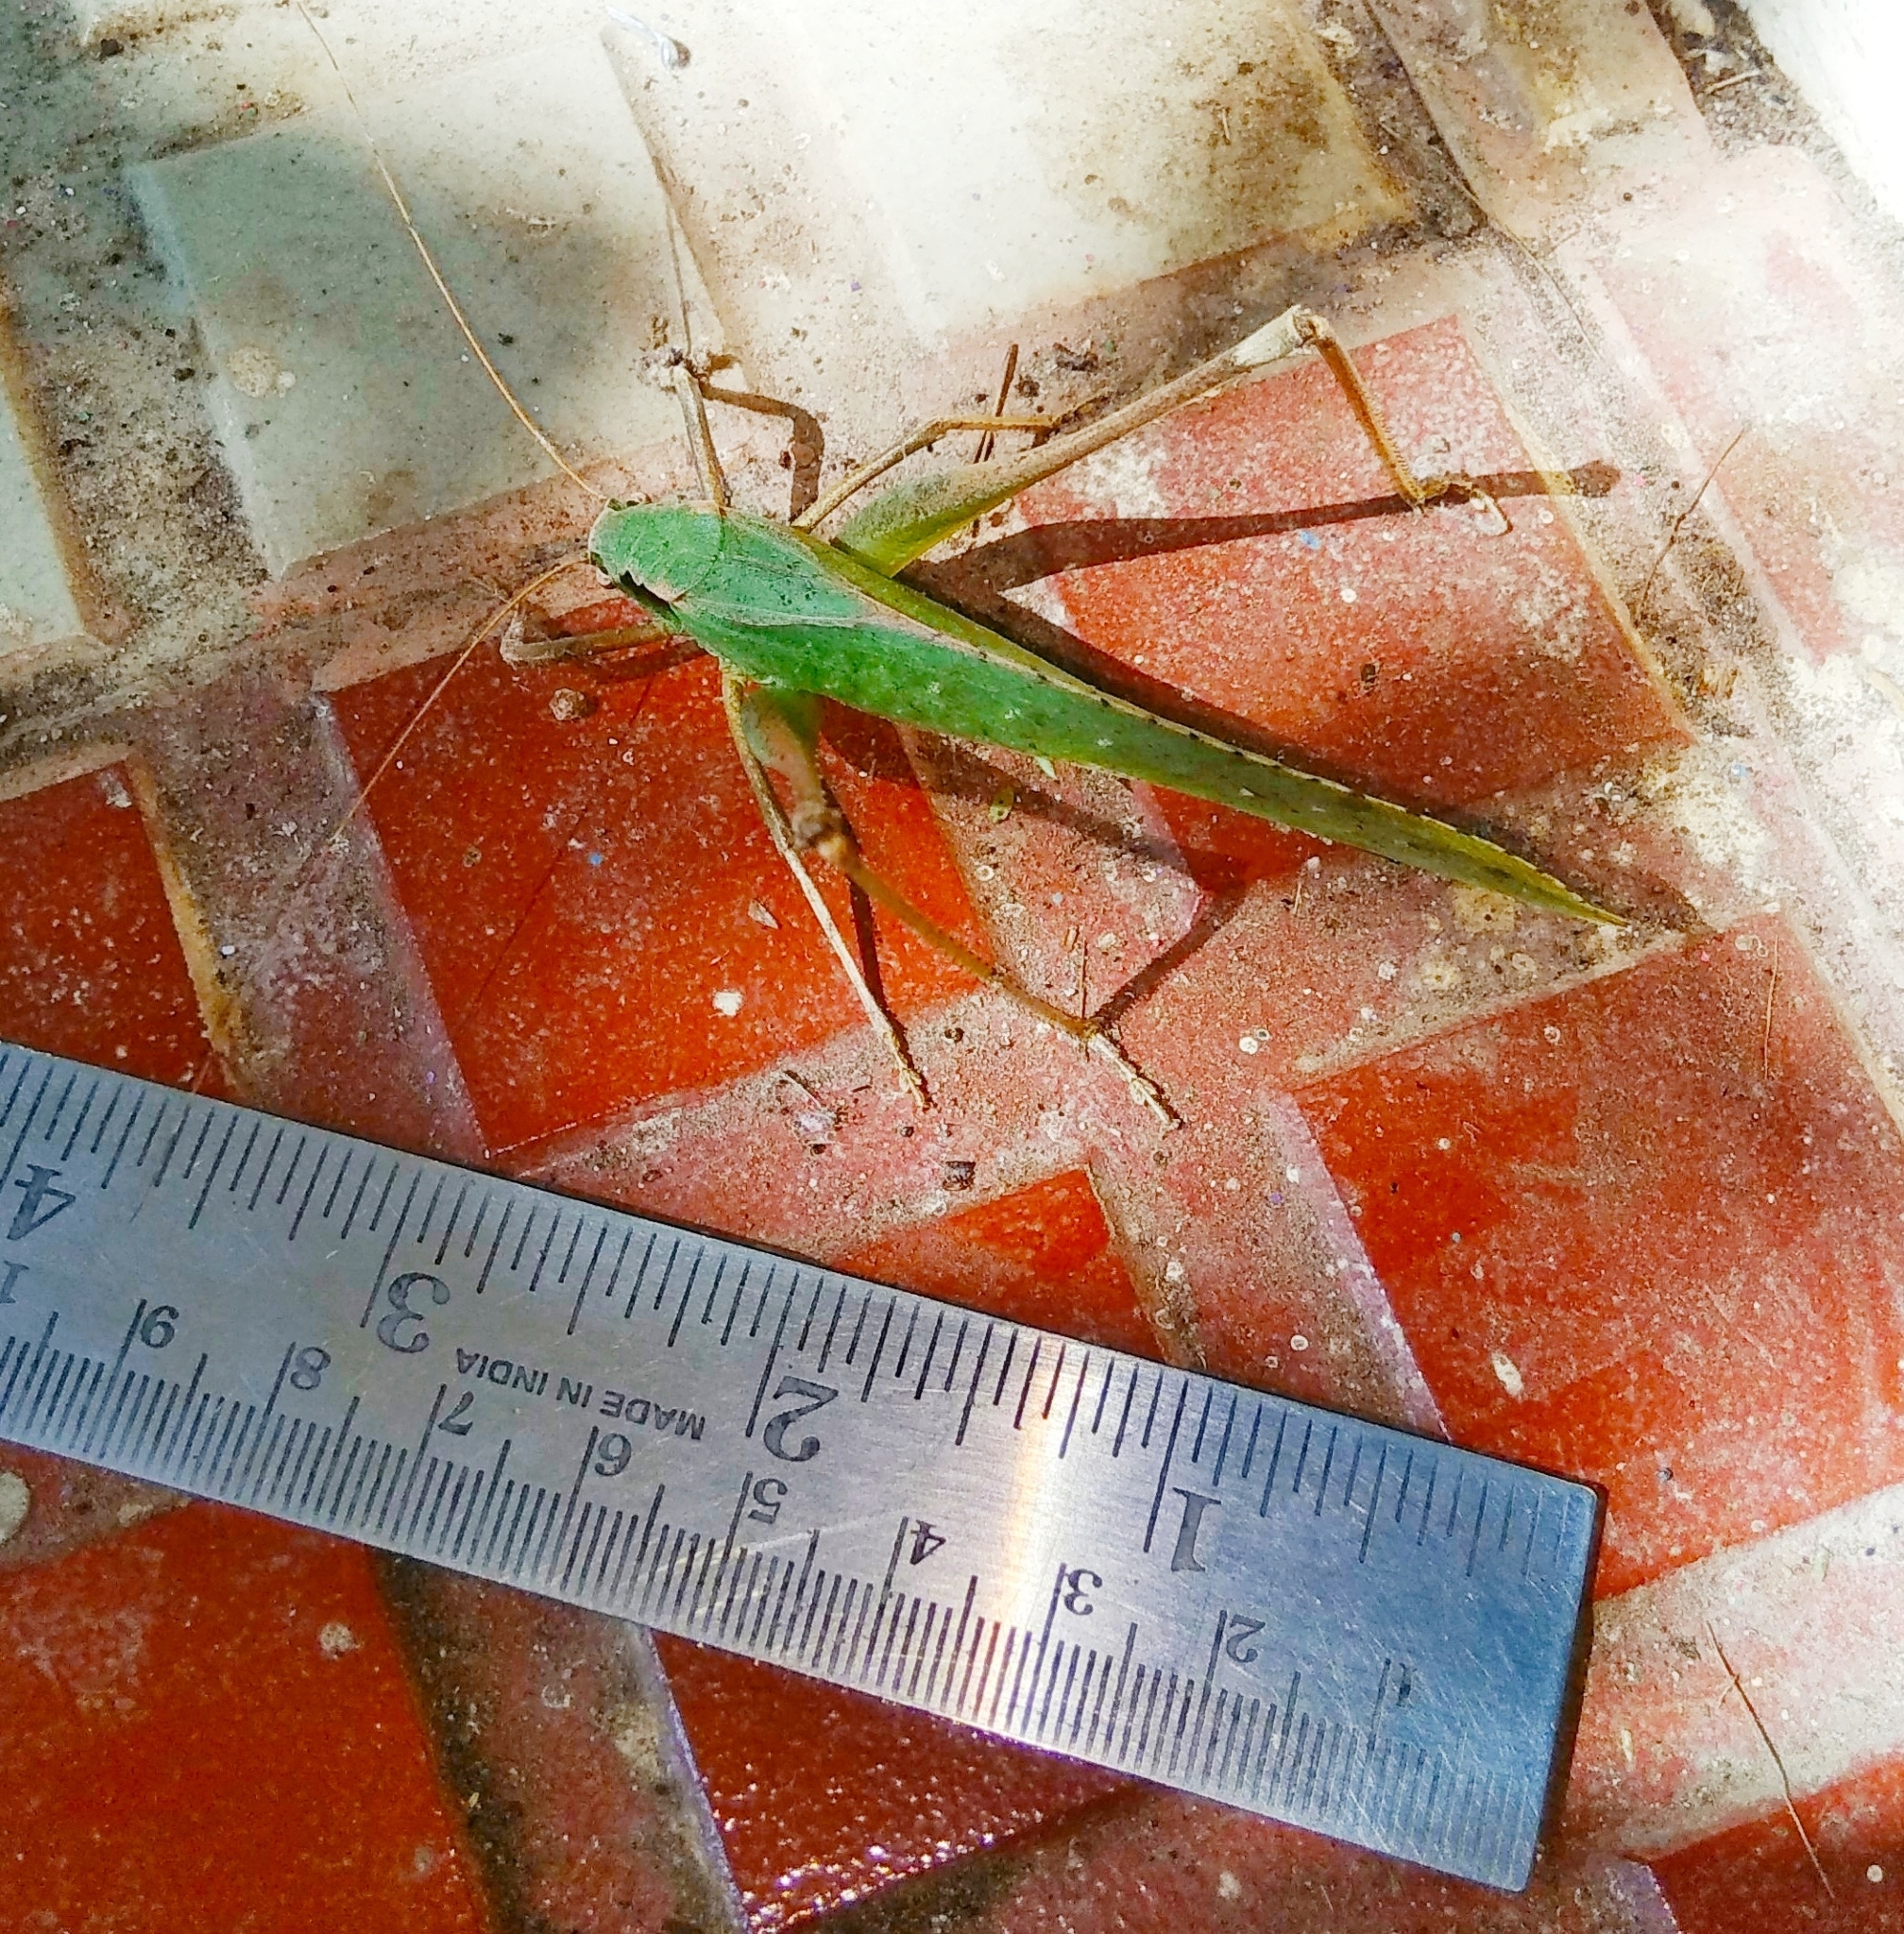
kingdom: Animalia
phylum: Arthropoda
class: Insecta
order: Orthoptera
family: Tettigoniidae
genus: Mecopoda
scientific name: Mecopoda elongata
